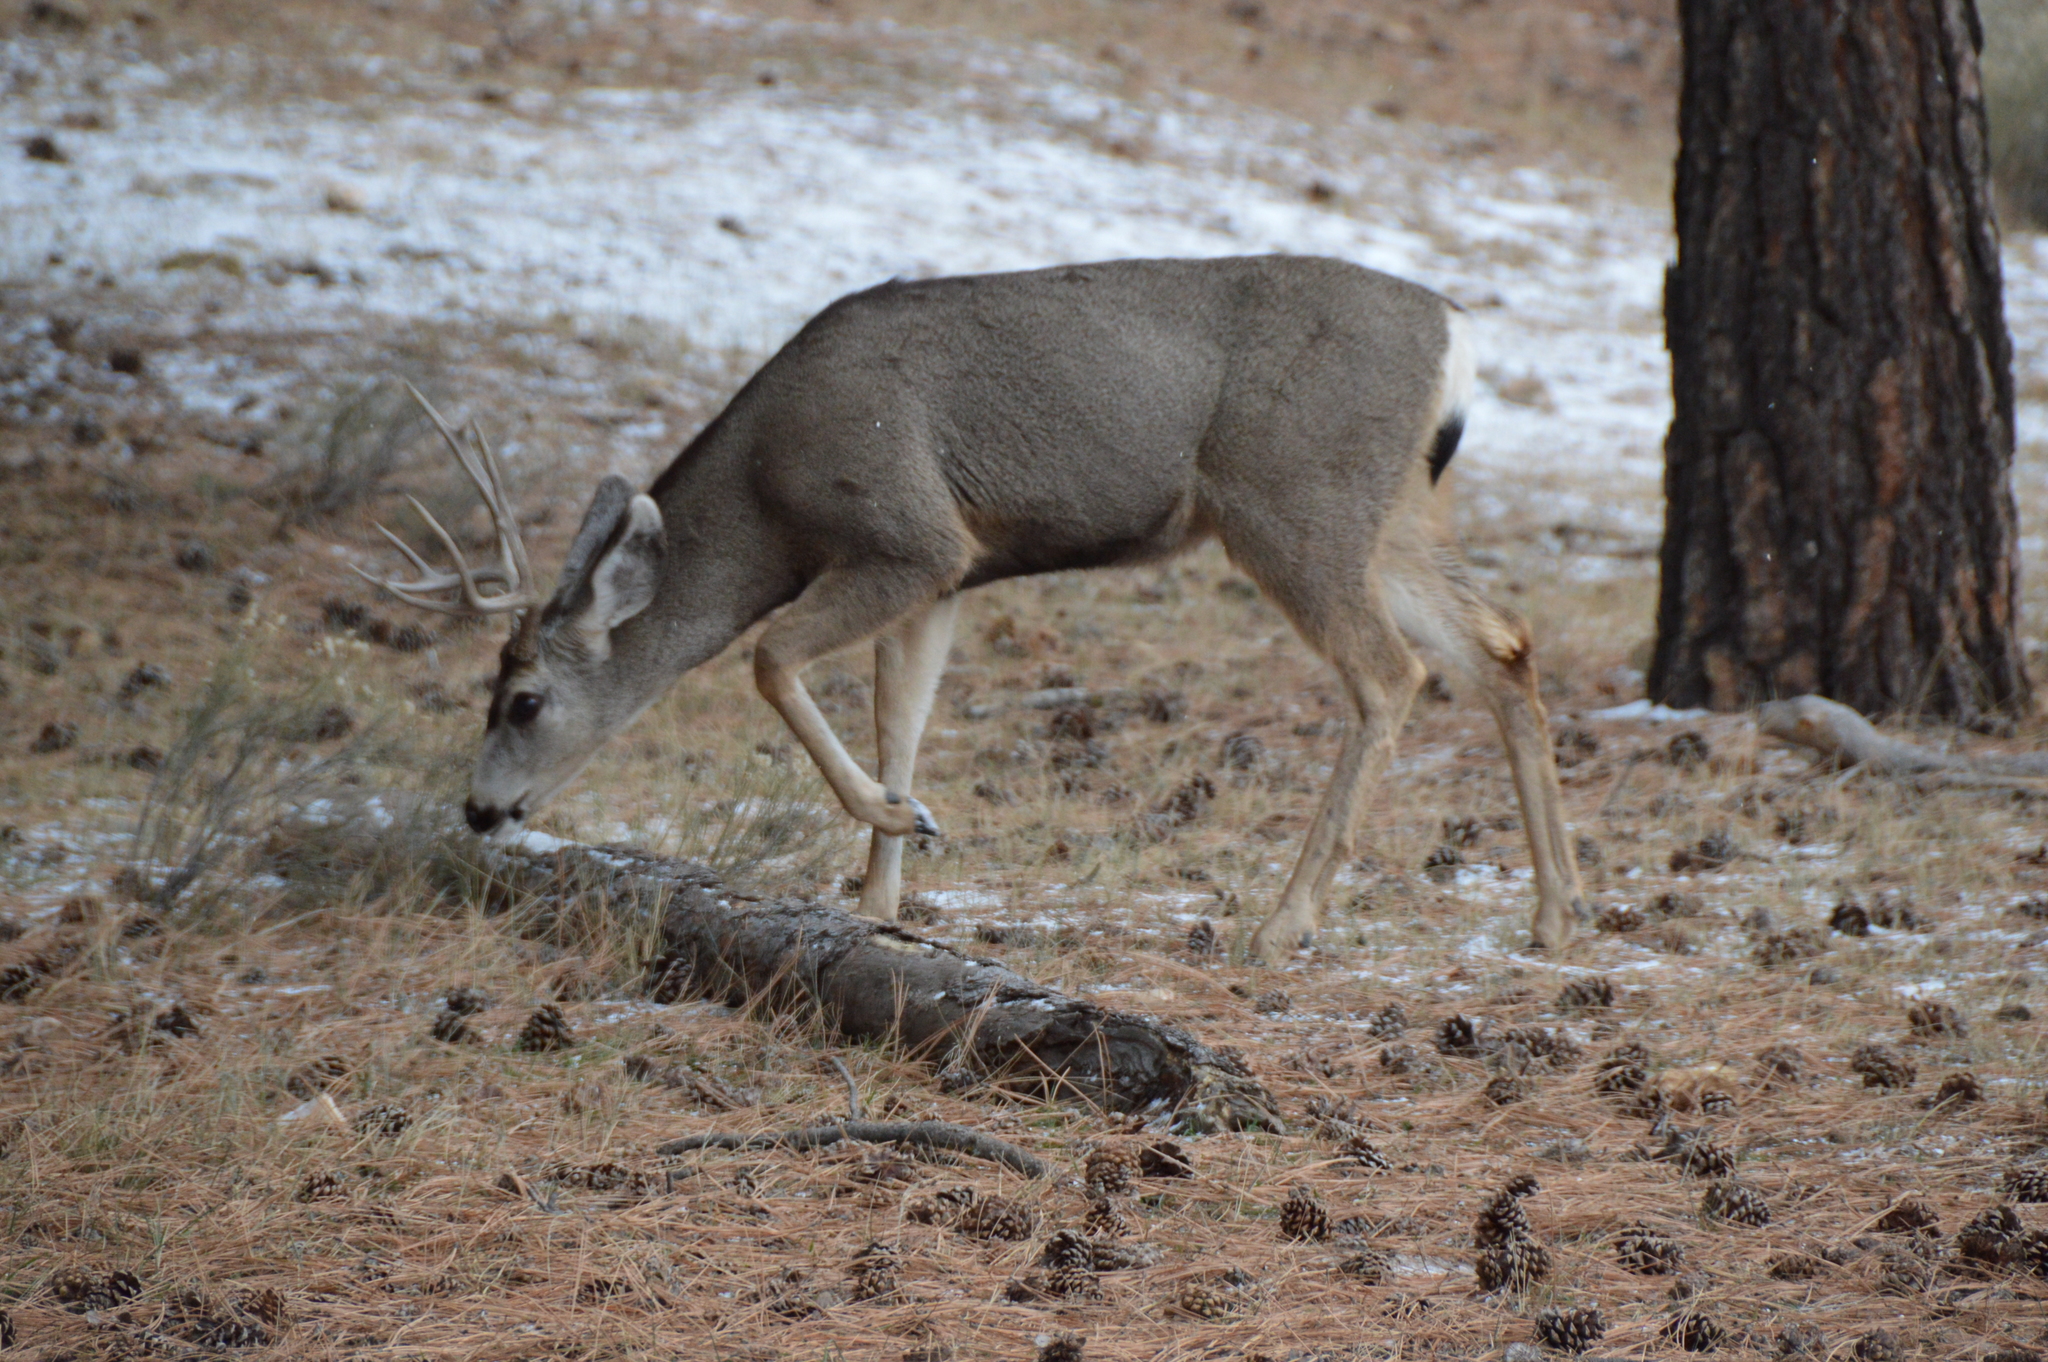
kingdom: Animalia
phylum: Chordata
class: Mammalia
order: Artiodactyla
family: Cervidae
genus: Odocoileus
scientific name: Odocoileus hemionus
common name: Mule deer
